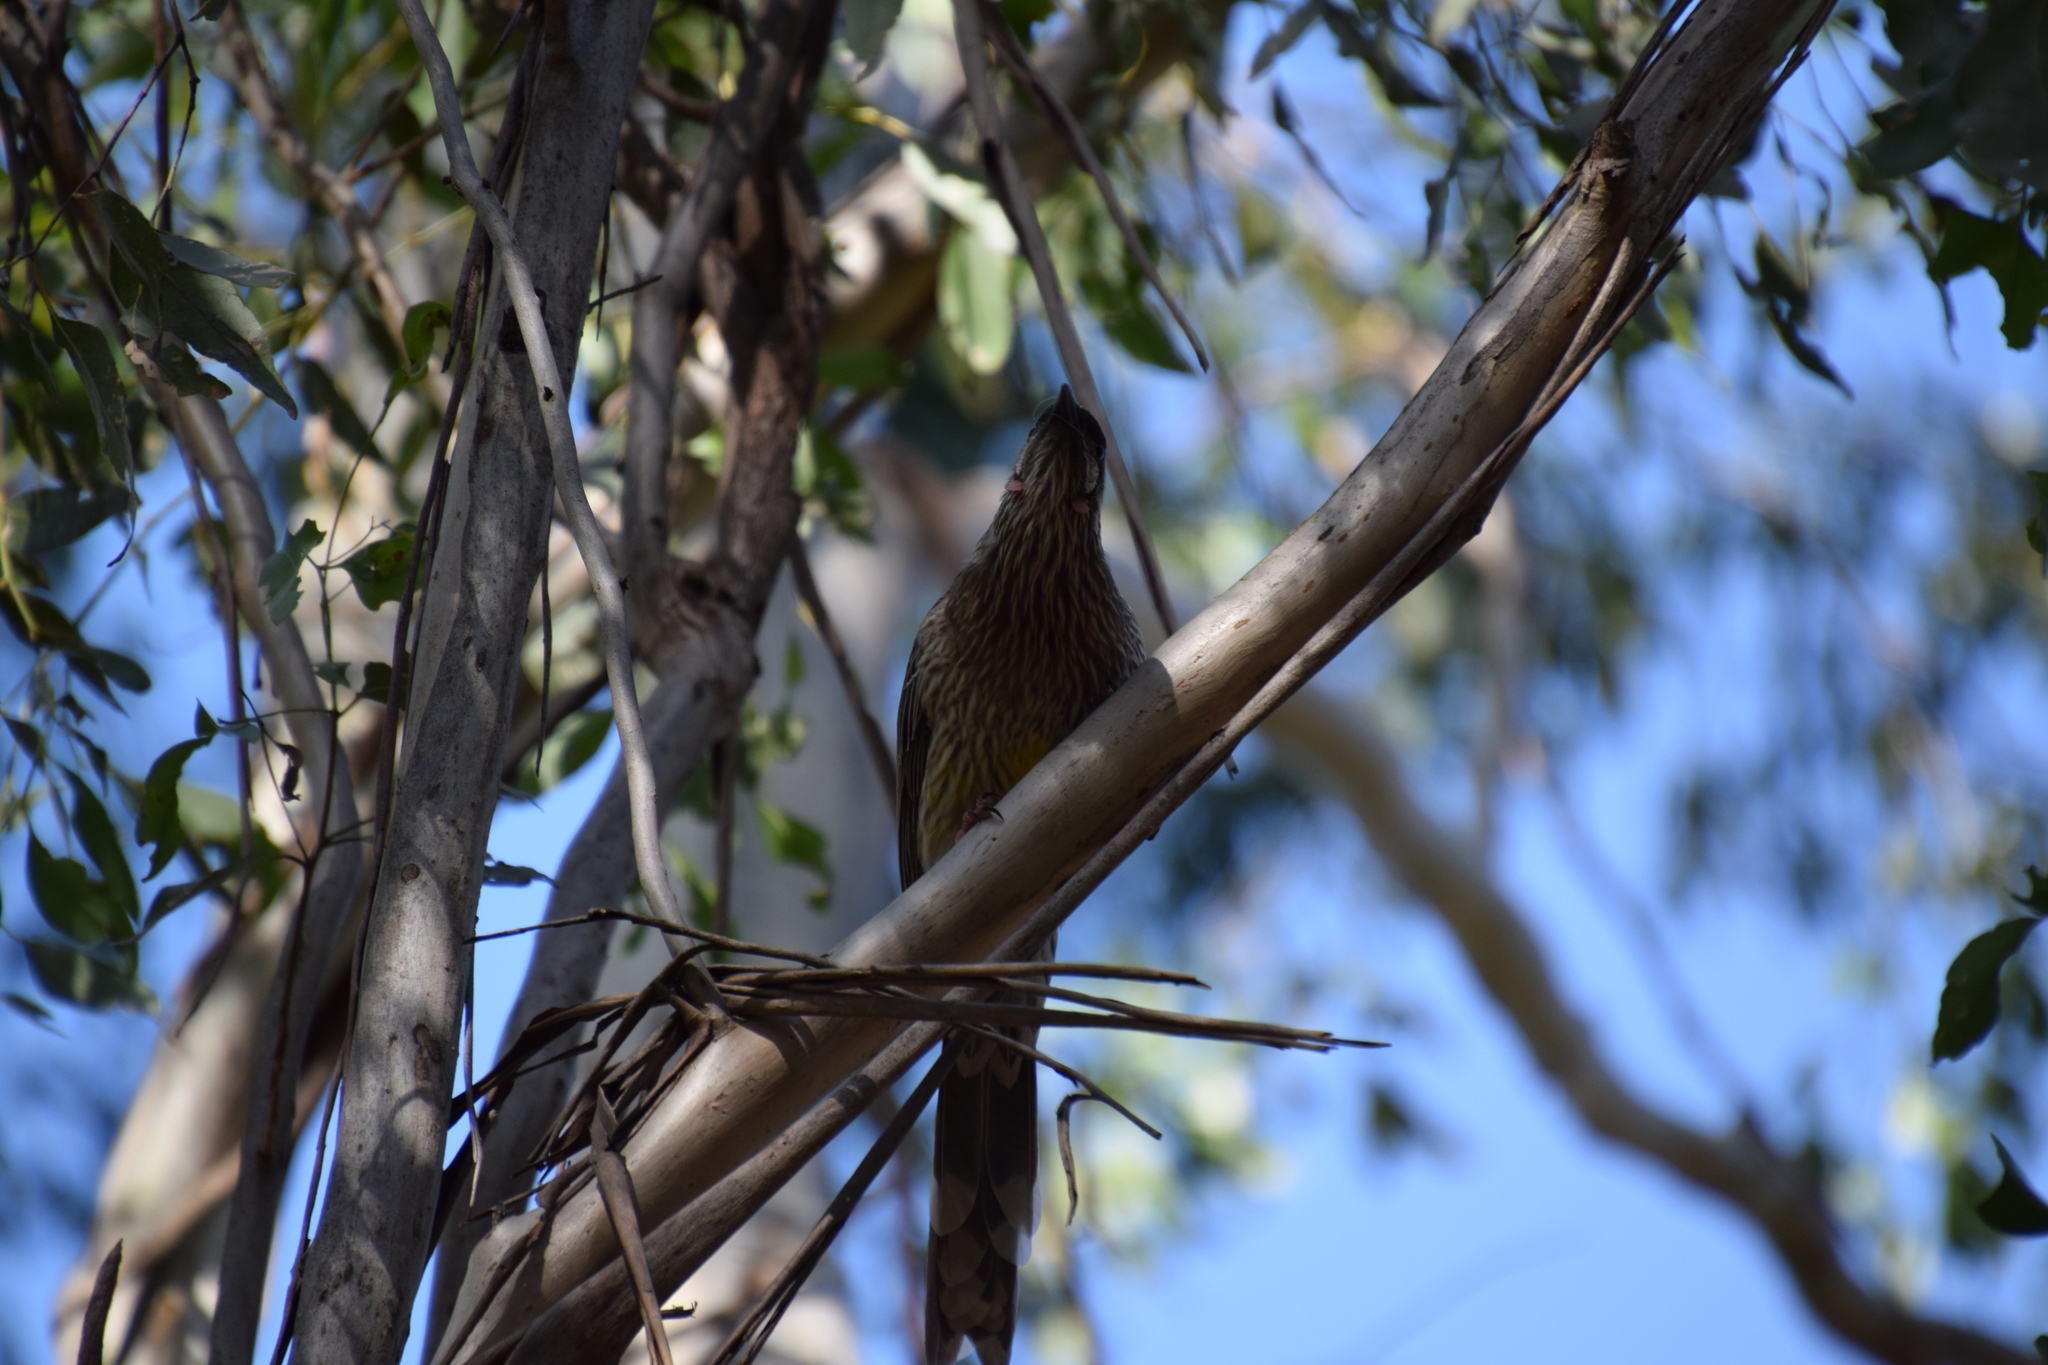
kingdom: Animalia
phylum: Chordata
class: Aves
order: Passeriformes
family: Meliphagidae
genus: Anthochaera
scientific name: Anthochaera carunculata
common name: Red wattlebird
